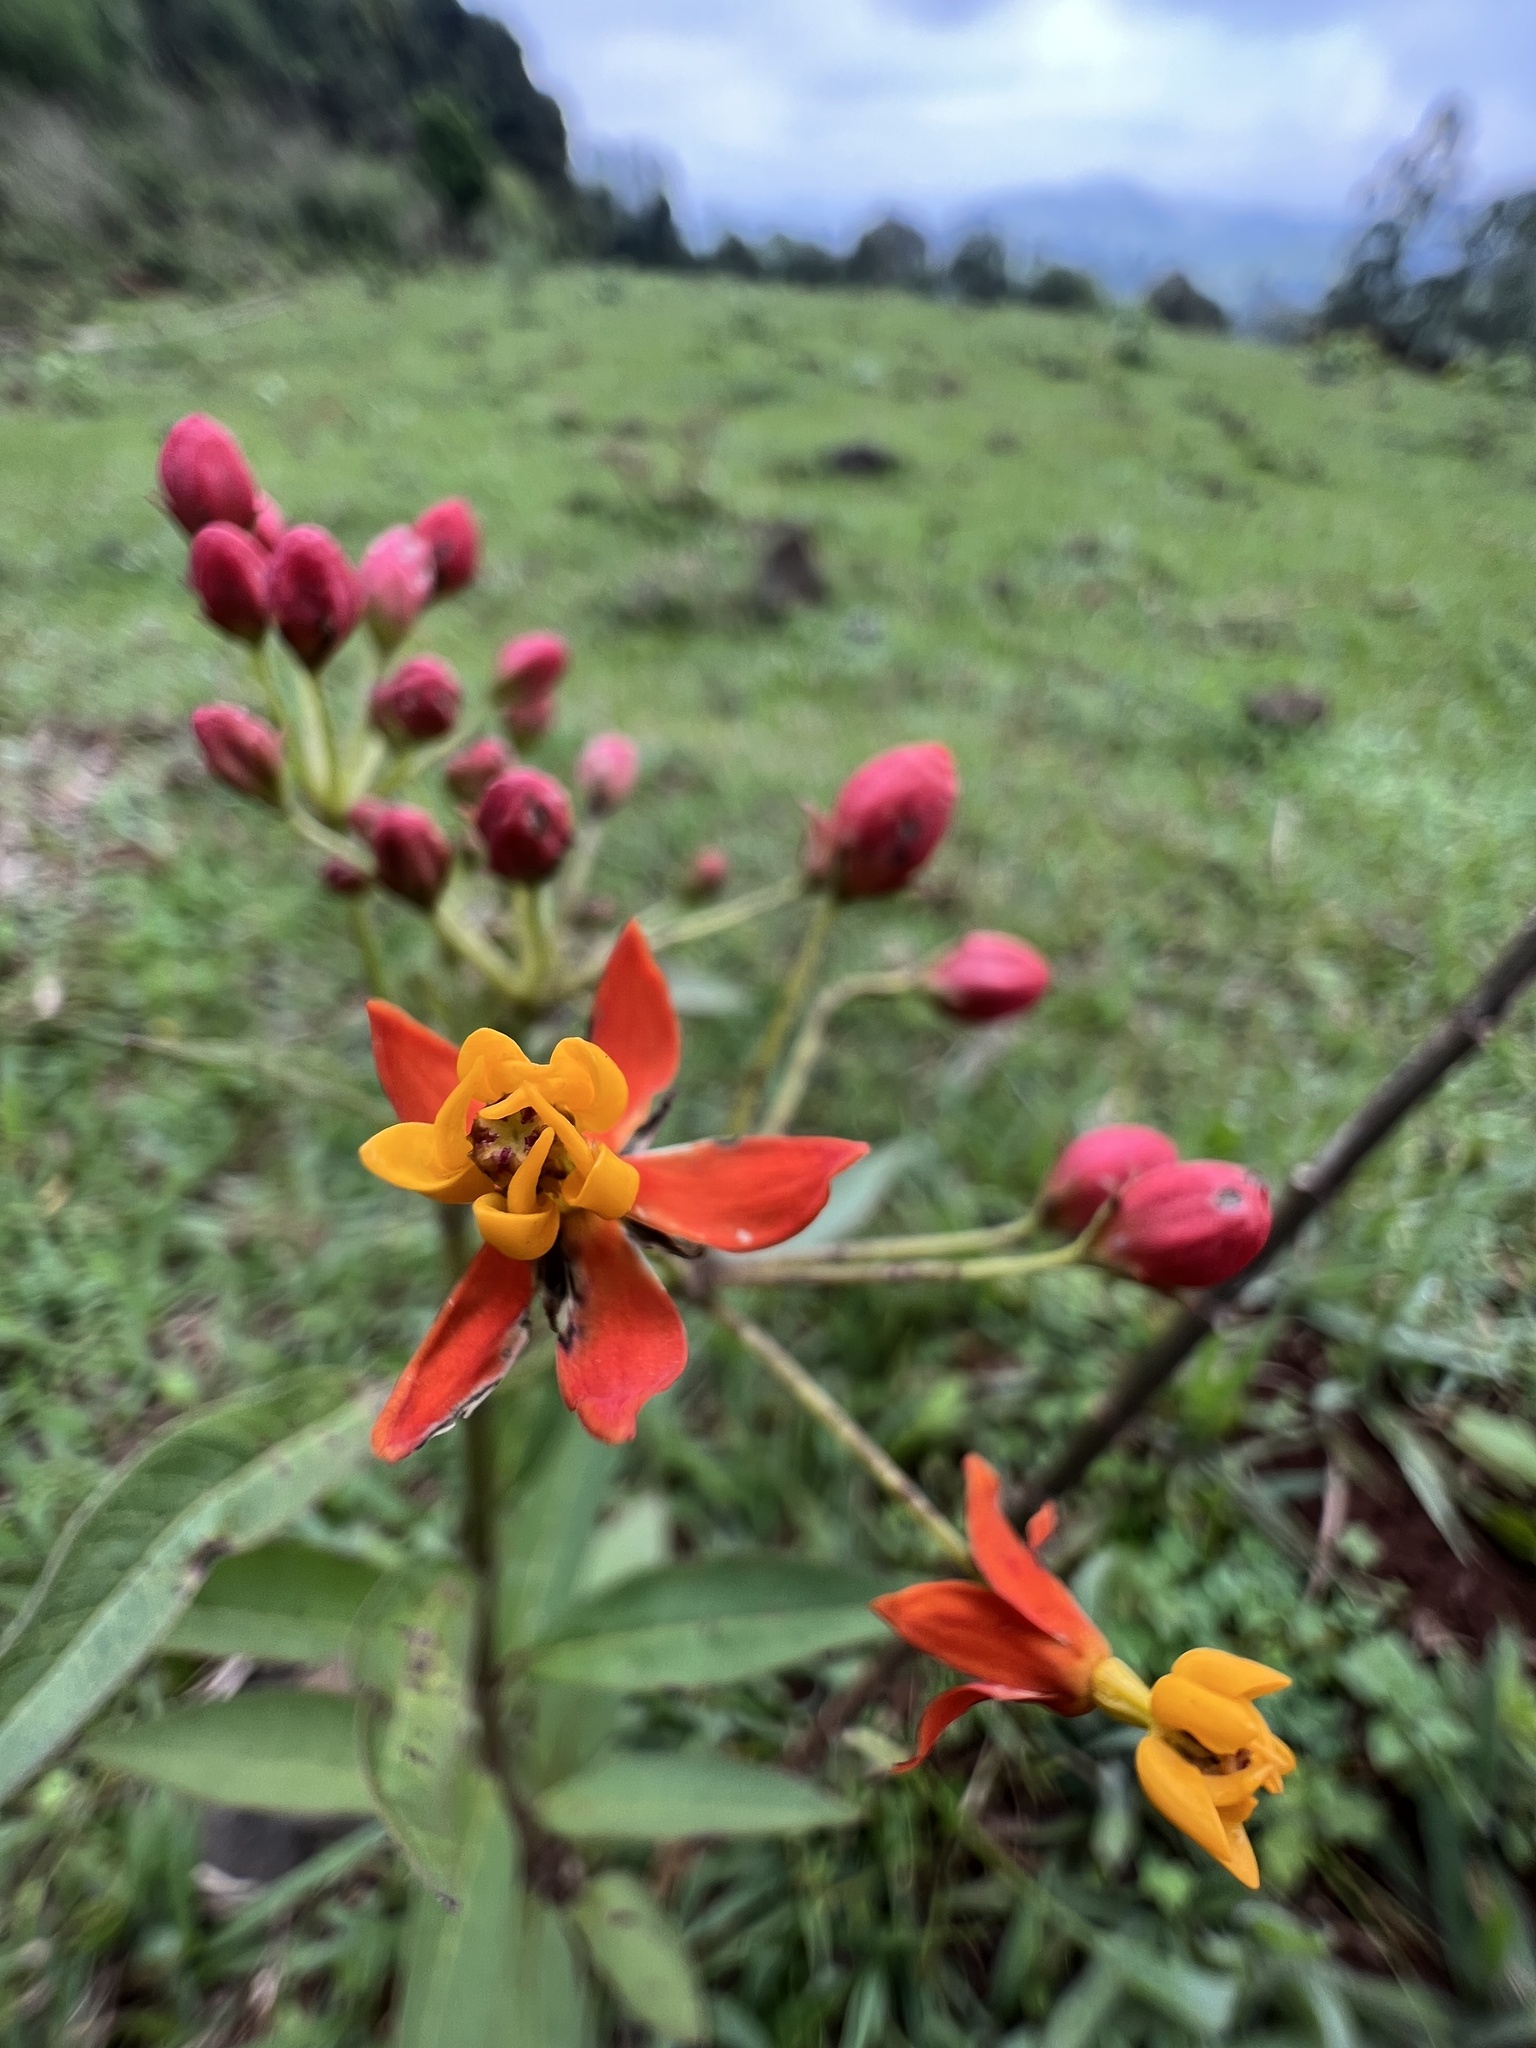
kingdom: Plantae
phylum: Tracheophyta
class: Magnoliopsida
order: Gentianales
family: Apocynaceae
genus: Asclepias
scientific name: Asclepias curassavica
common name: Bloodflower
